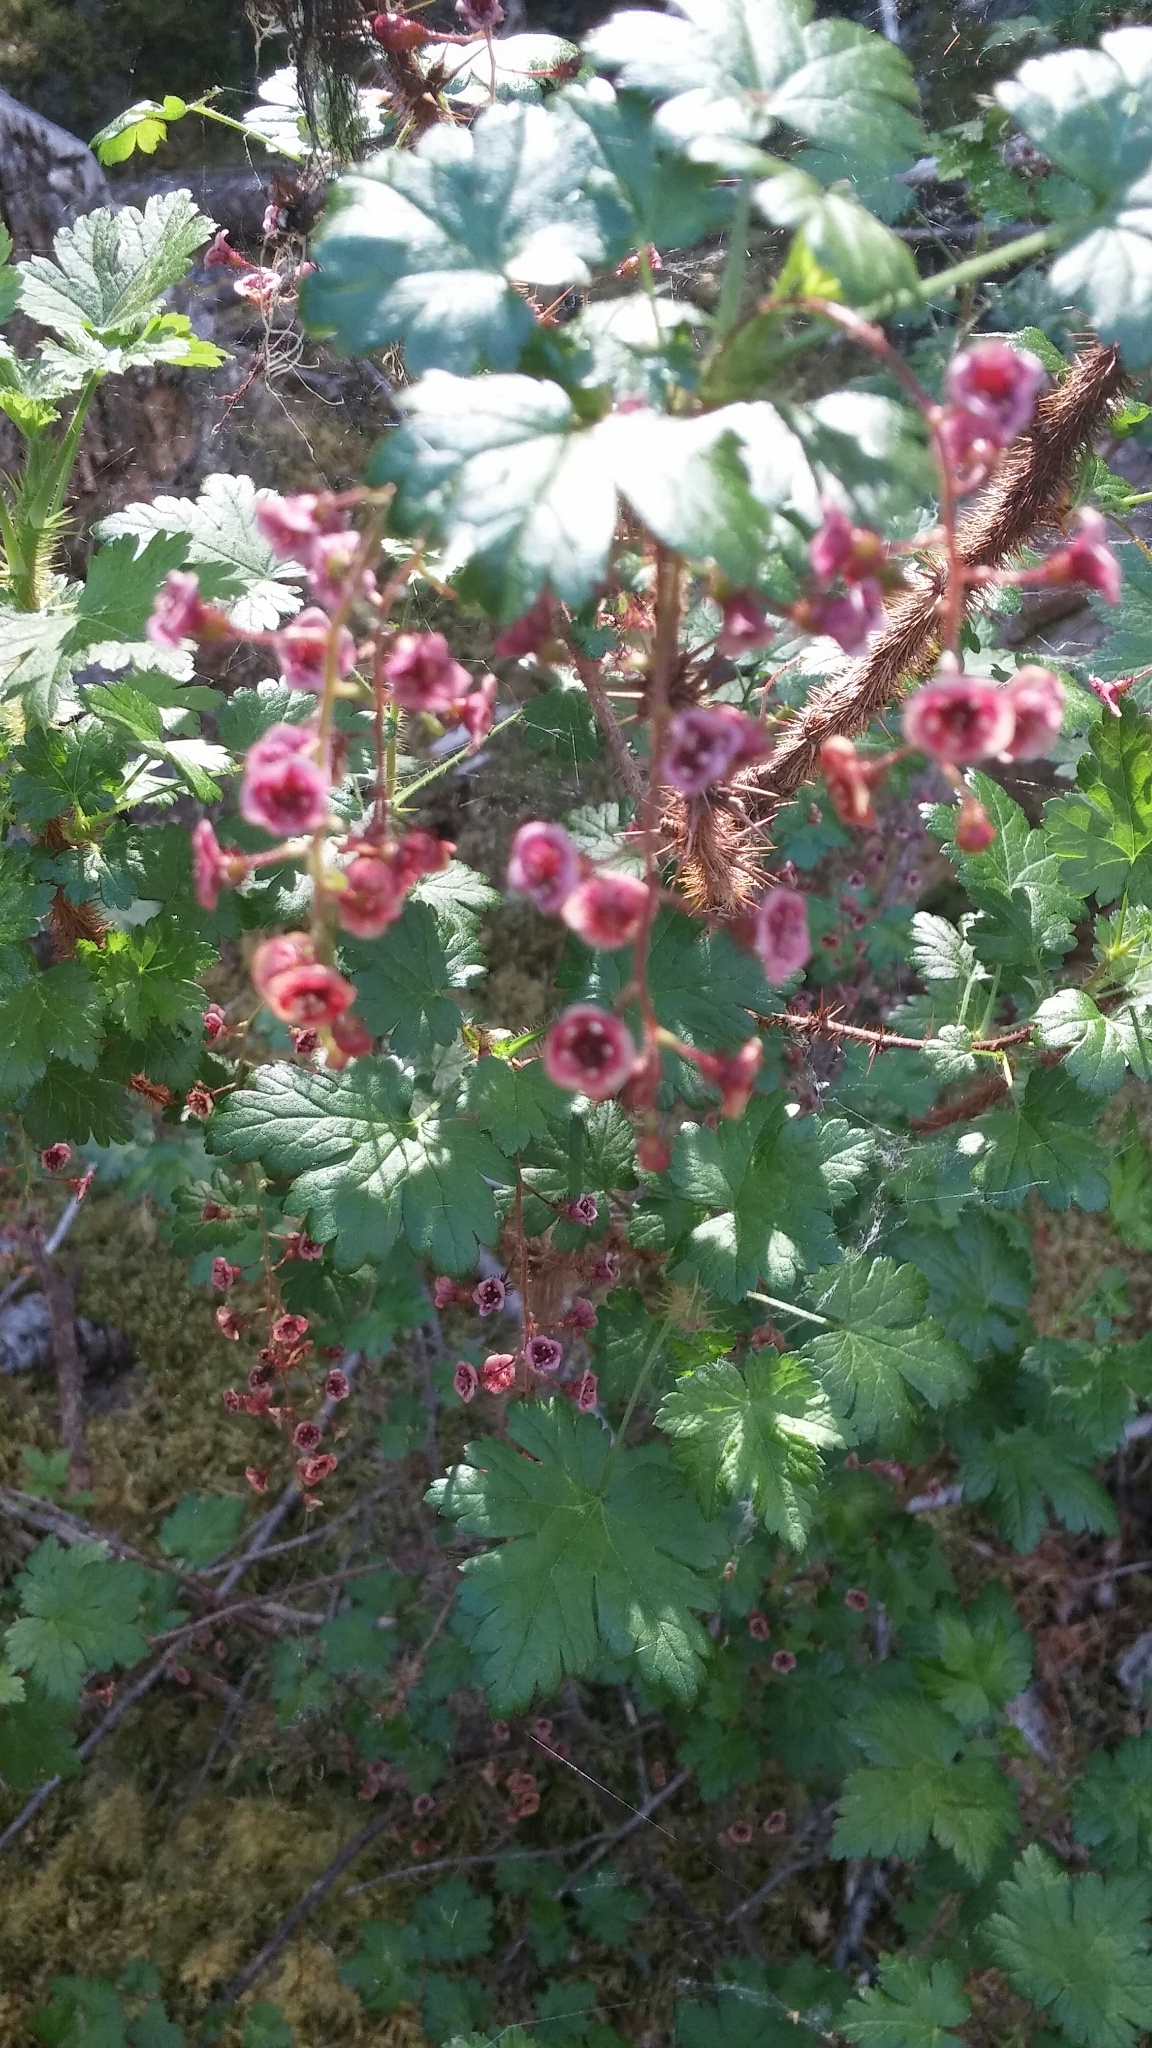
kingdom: Plantae
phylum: Tracheophyta
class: Magnoliopsida
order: Saxifragales
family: Grossulariaceae
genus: Ribes
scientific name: Ribes lacustre
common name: Black gooseberry
